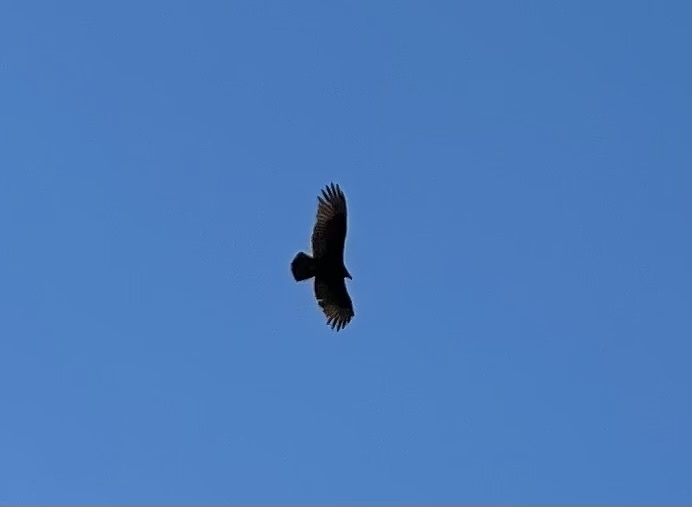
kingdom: Animalia
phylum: Chordata
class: Aves
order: Accipitriformes
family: Cathartidae
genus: Cathartes
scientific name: Cathartes aura
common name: Turkey vulture
